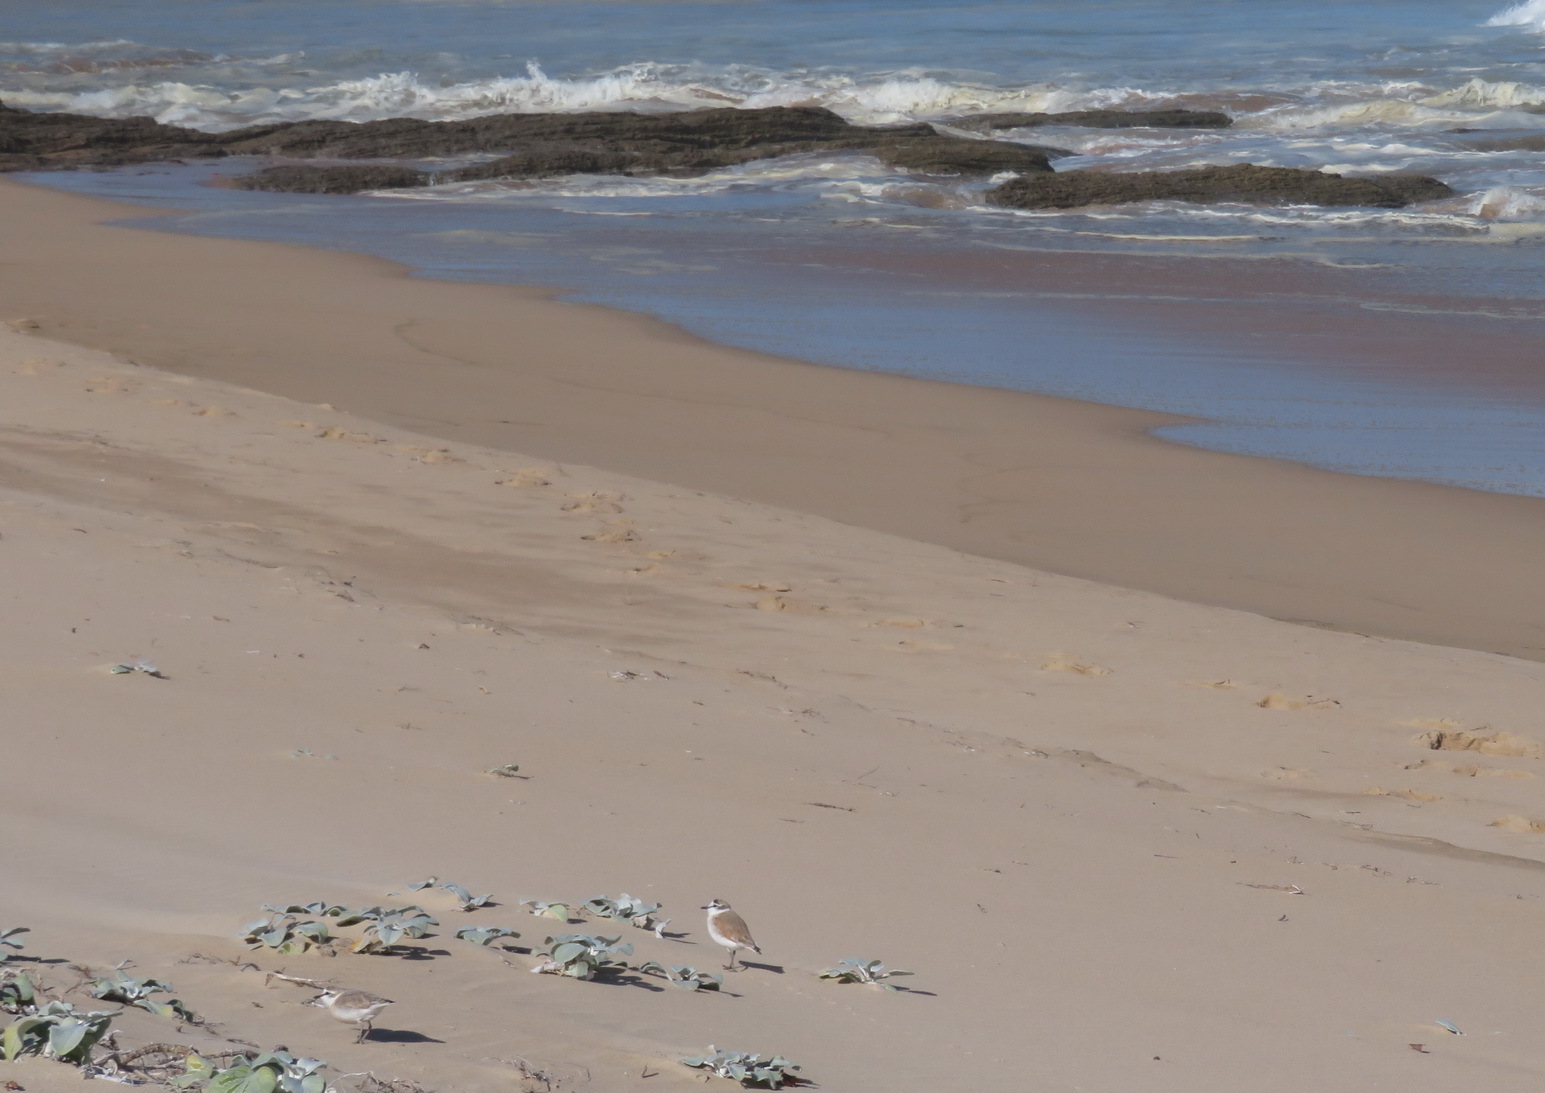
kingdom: Animalia
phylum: Chordata
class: Aves
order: Charadriiformes
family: Charadriidae
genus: Anarhynchus
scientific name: Anarhynchus
